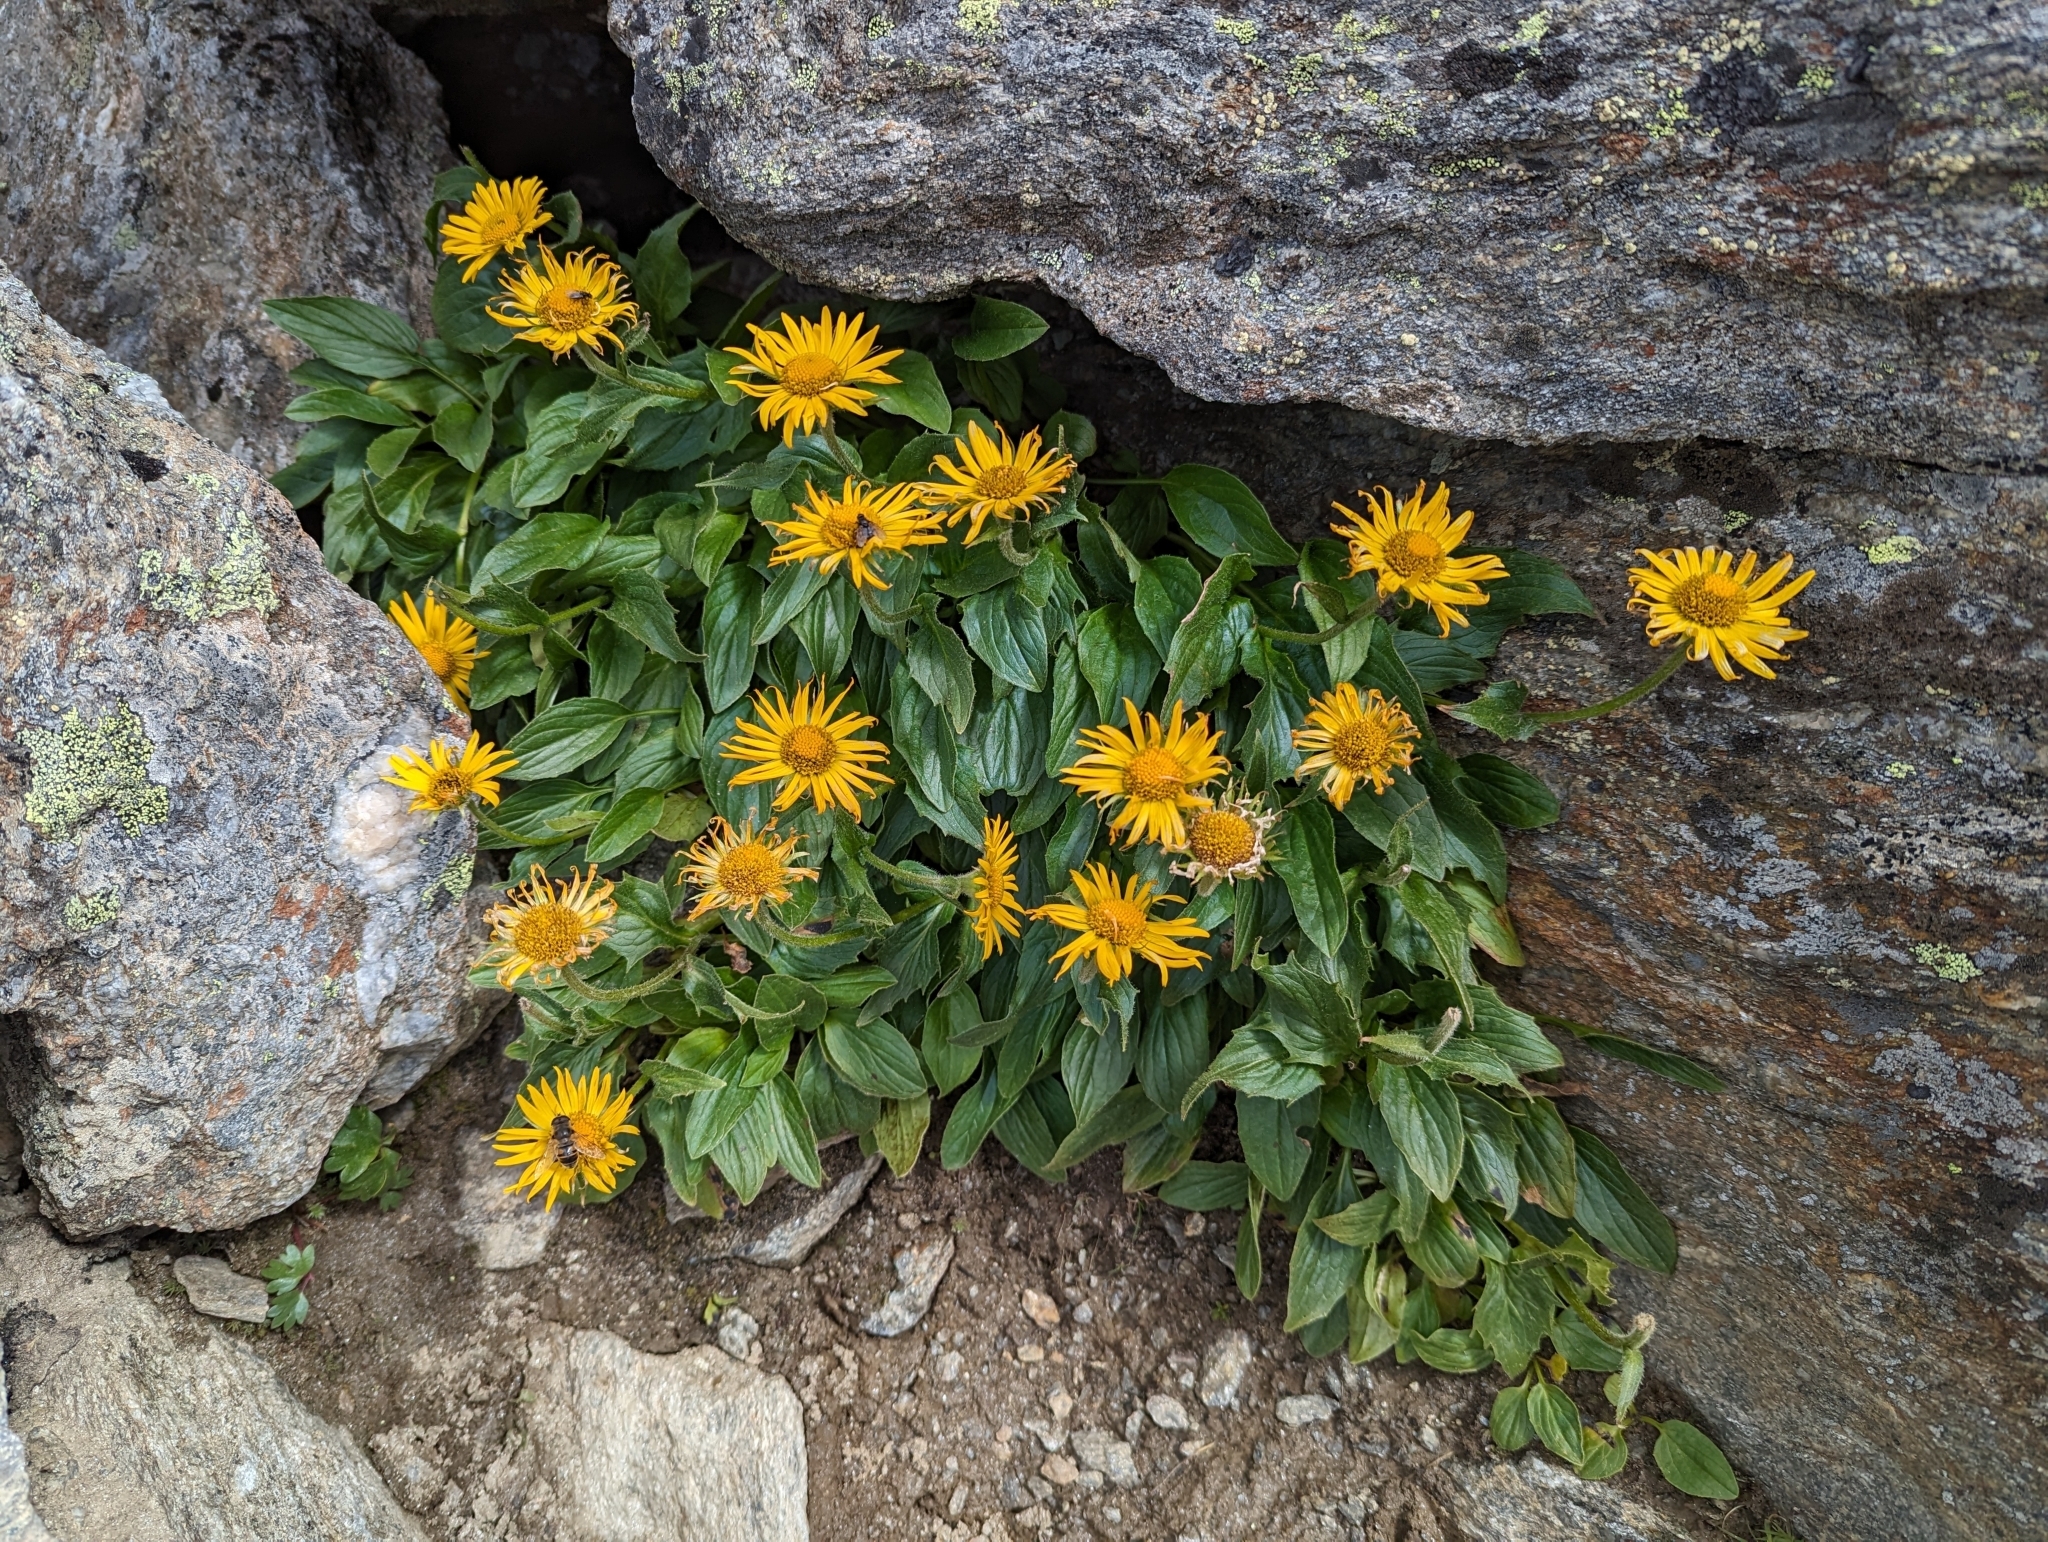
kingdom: Plantae
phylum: Tracheophyta
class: Magnoliopsida
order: Asterales
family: Asteraceae
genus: Doronicum
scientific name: Doronicum grandiflorum
